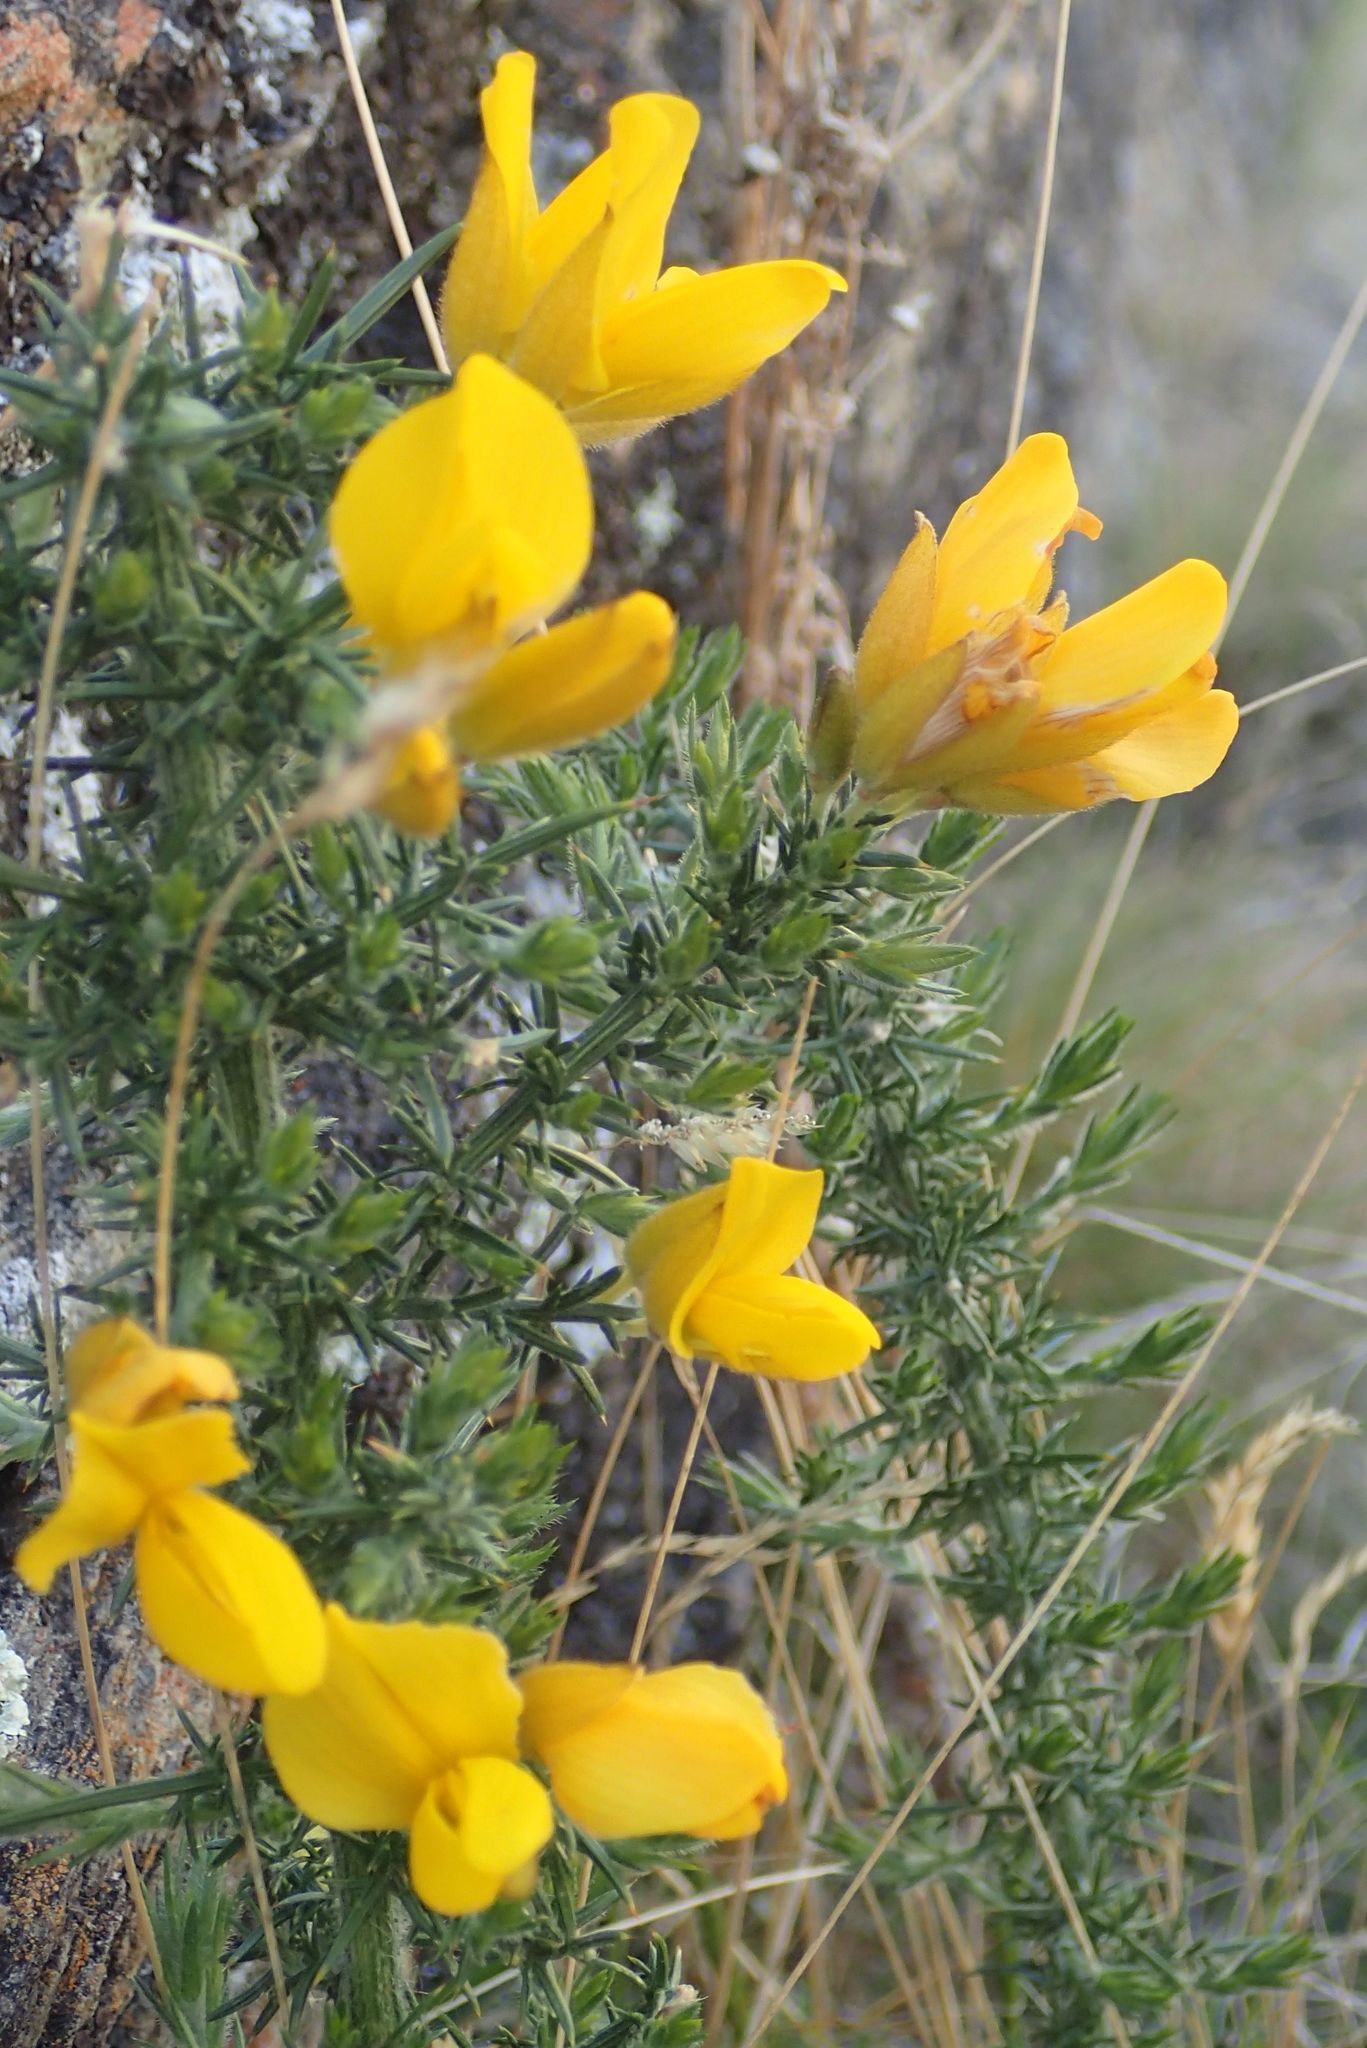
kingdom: Plantae
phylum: Tracheophyta
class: Magnoliopsida
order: Fabales
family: Fabaceae
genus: Ulex
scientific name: Ulex europaeus
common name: Common gorse
